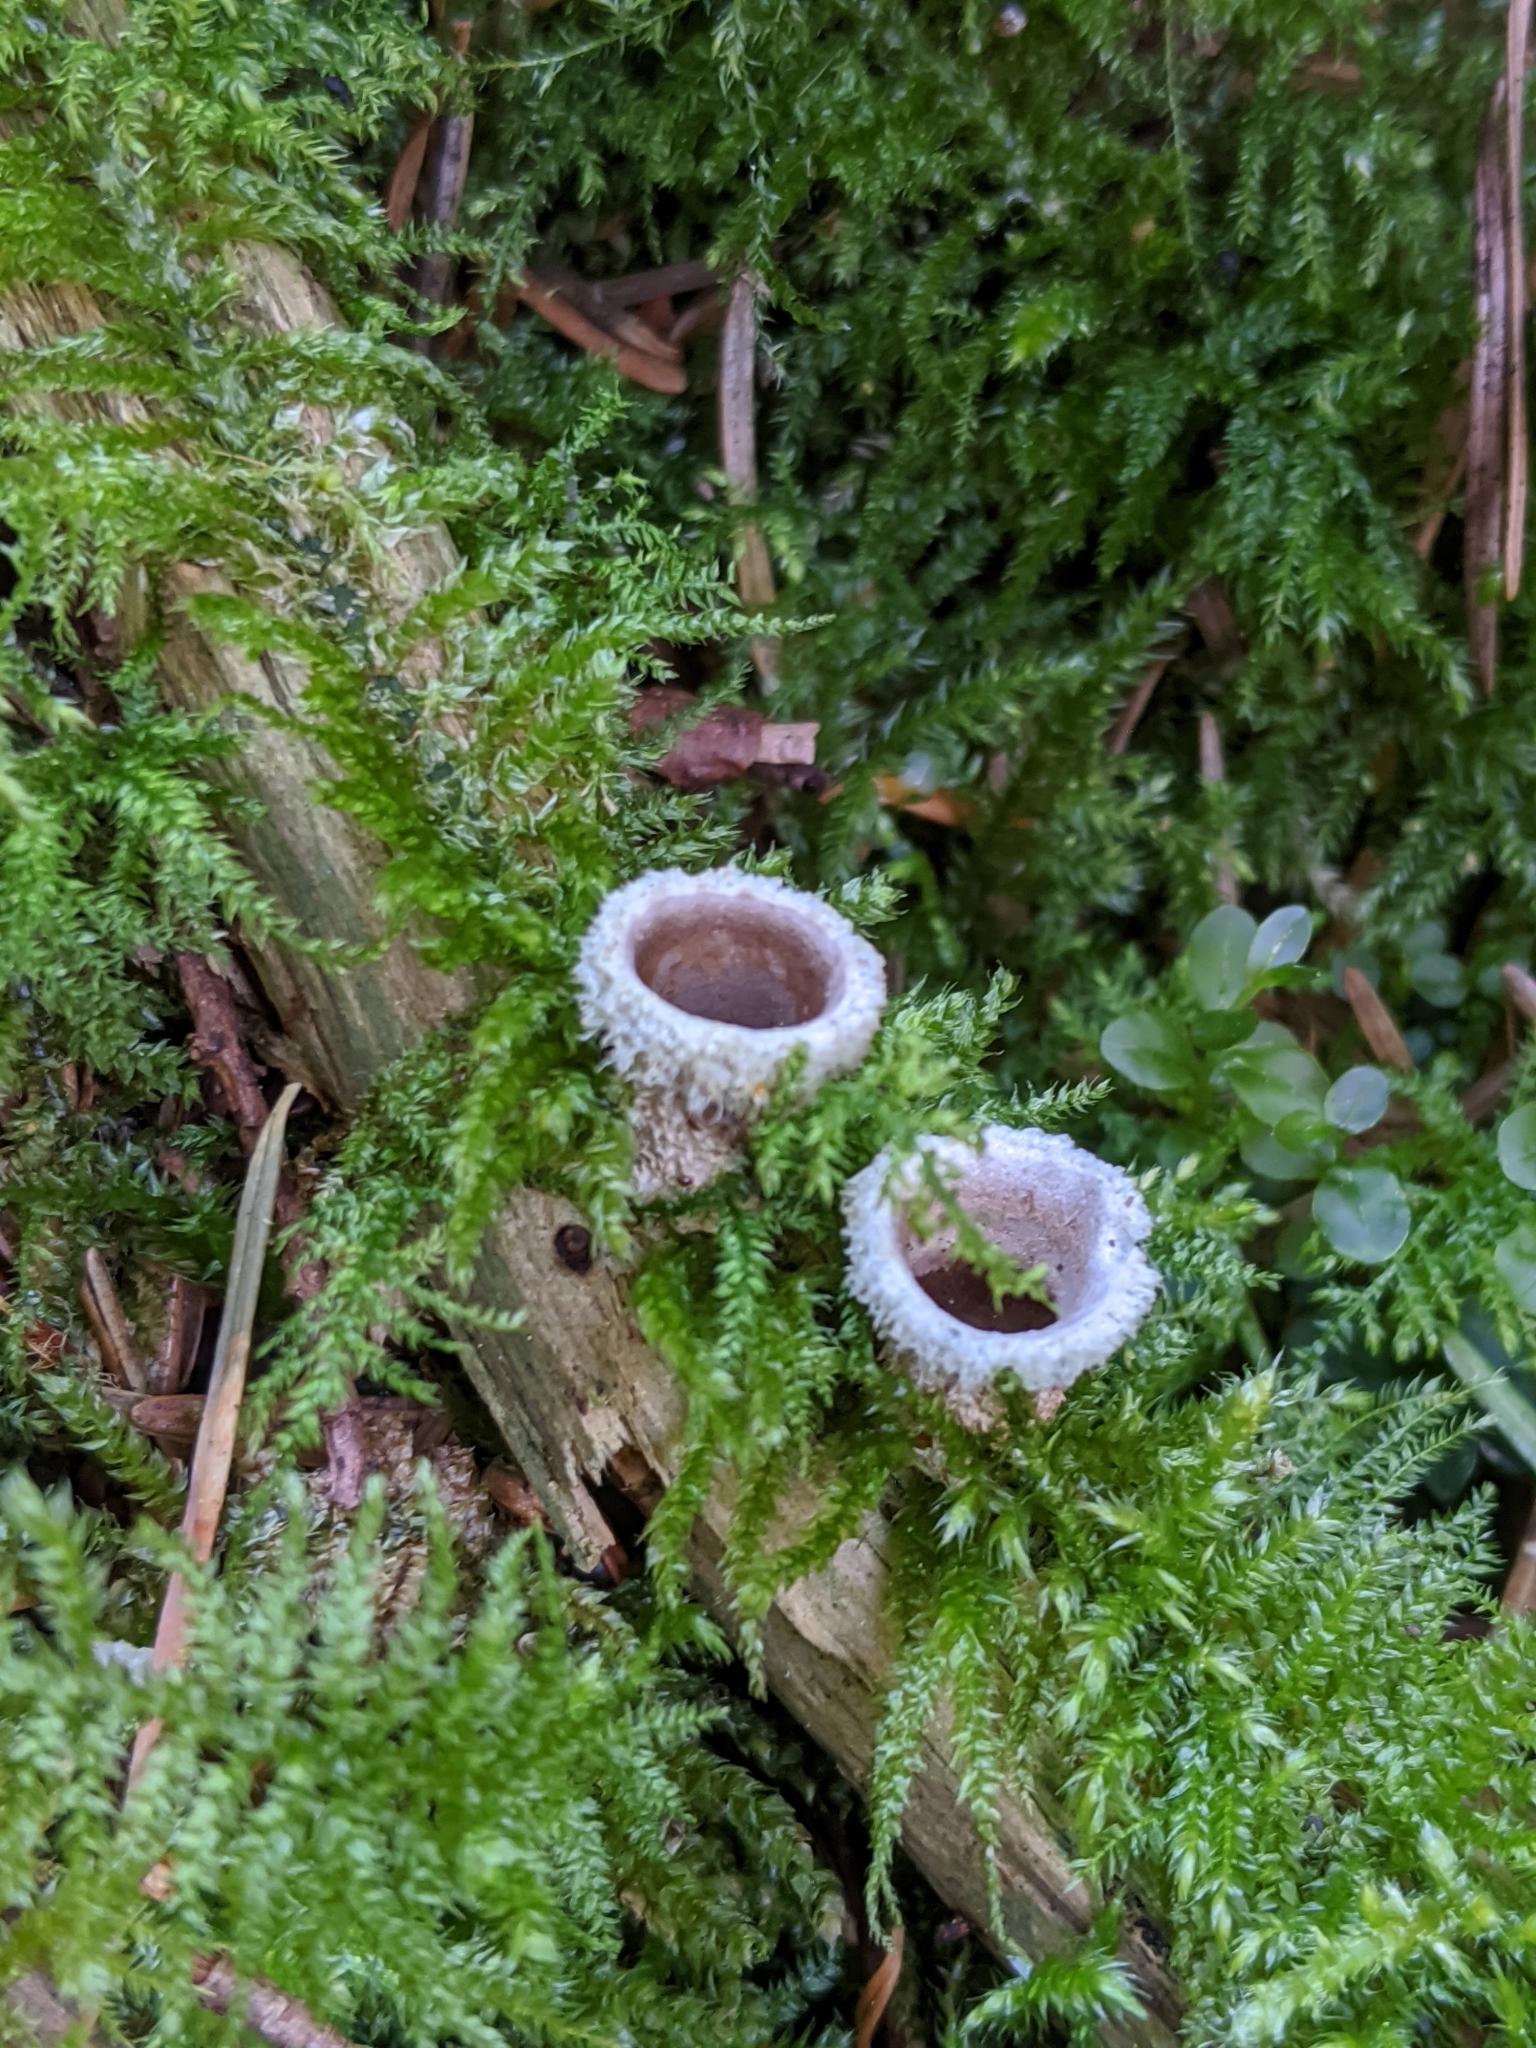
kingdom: Fungi
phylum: Basidiomycota
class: Agaricomycetes
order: Agaricales
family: Agaricaceae
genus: Nidula
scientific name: Nidula candida
